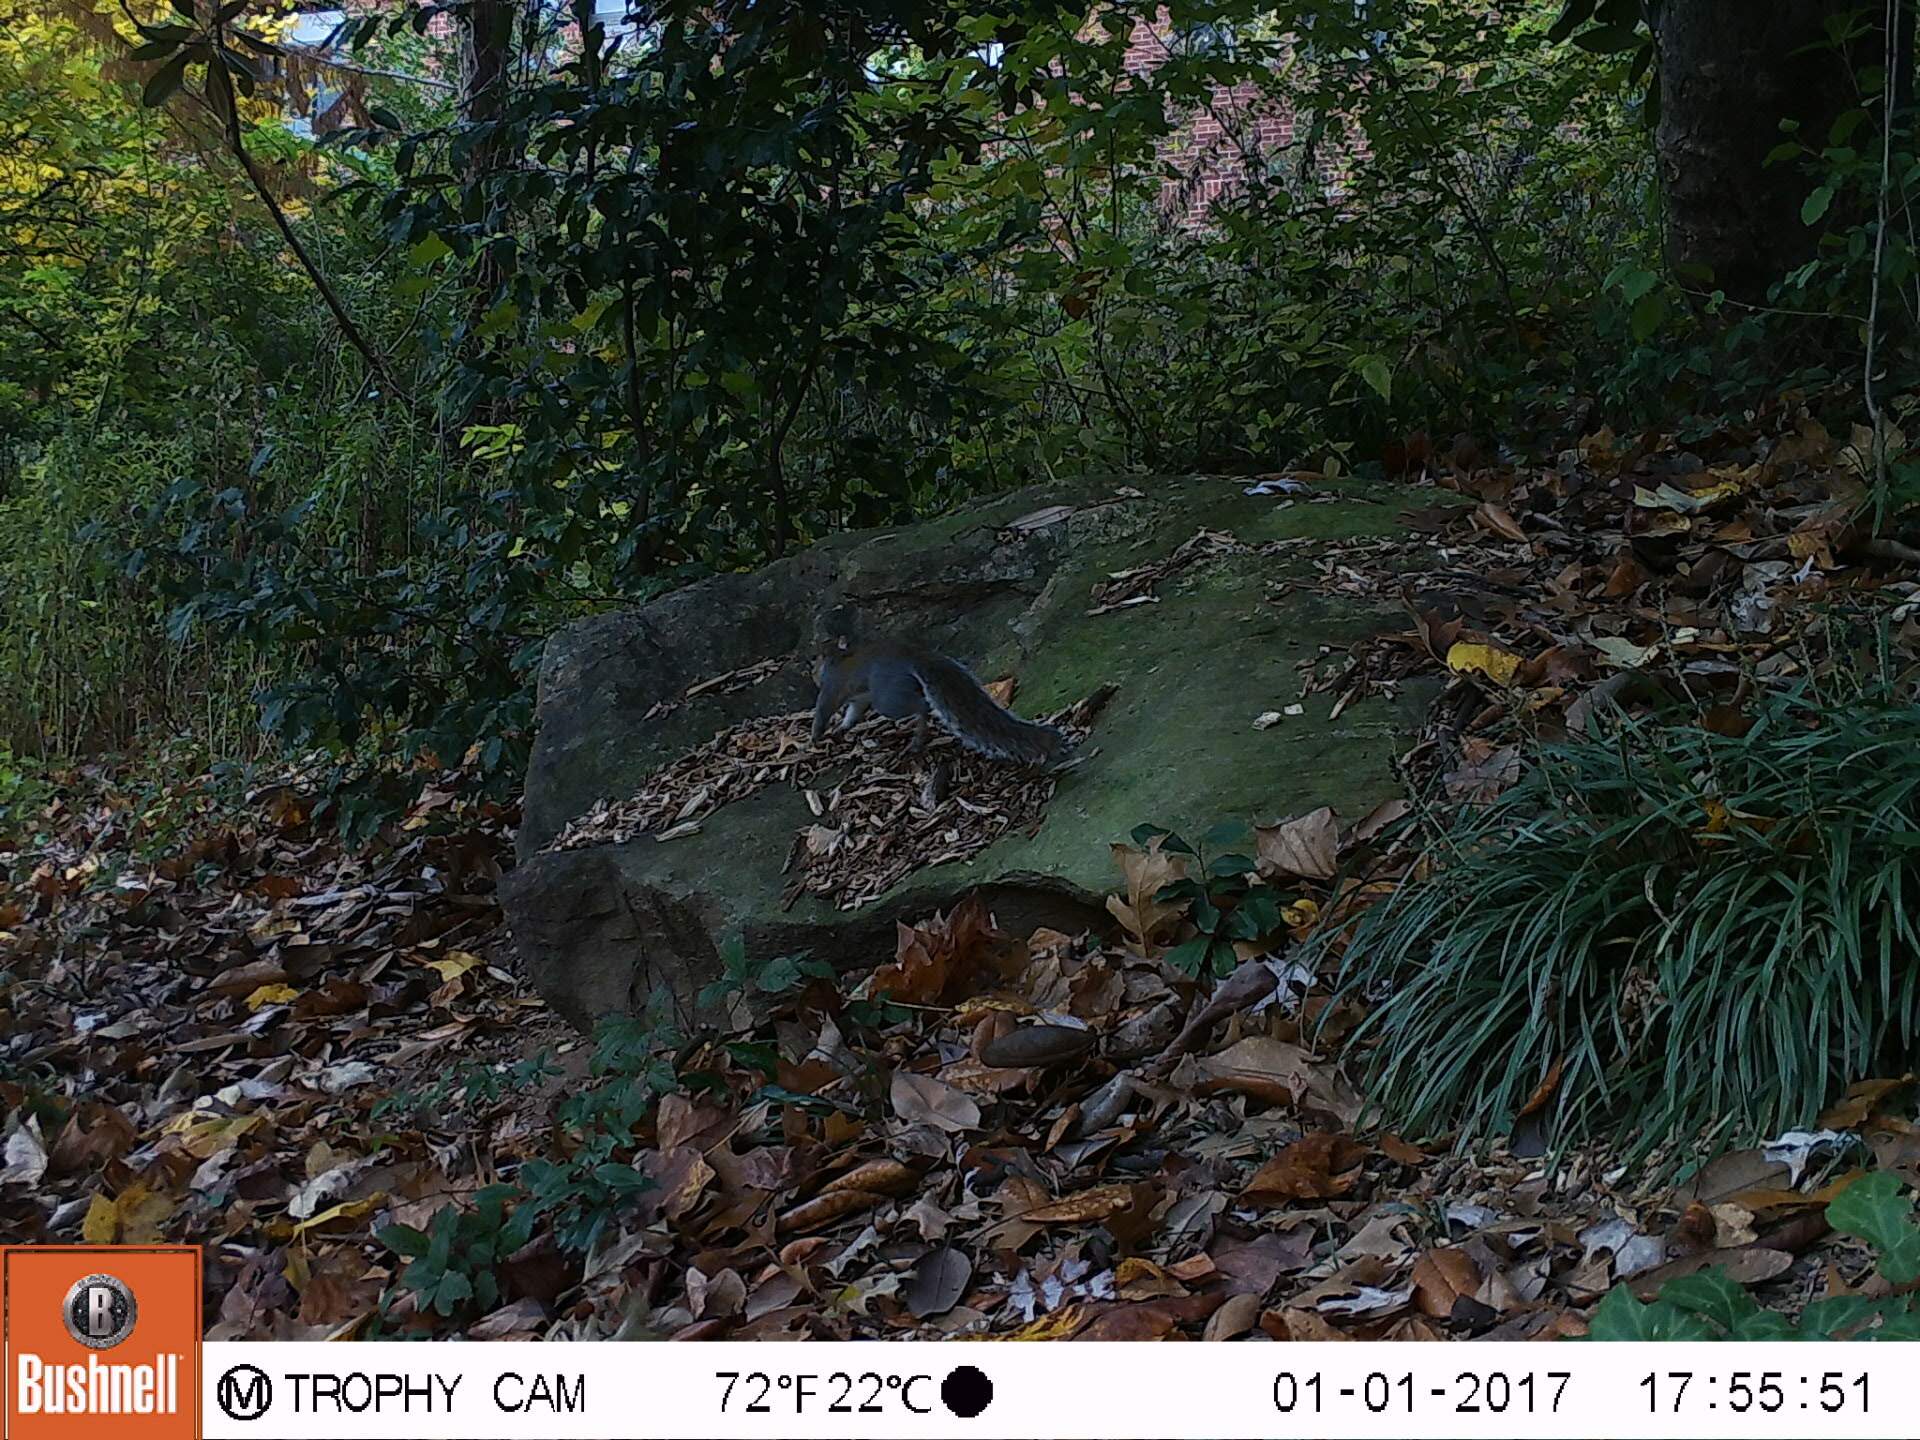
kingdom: Animalia
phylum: Chordata
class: Mammalia
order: Rodentia
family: Sciuridae
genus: Sciurus
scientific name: Sciurus carolinensis
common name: Eastern gray squirrel
